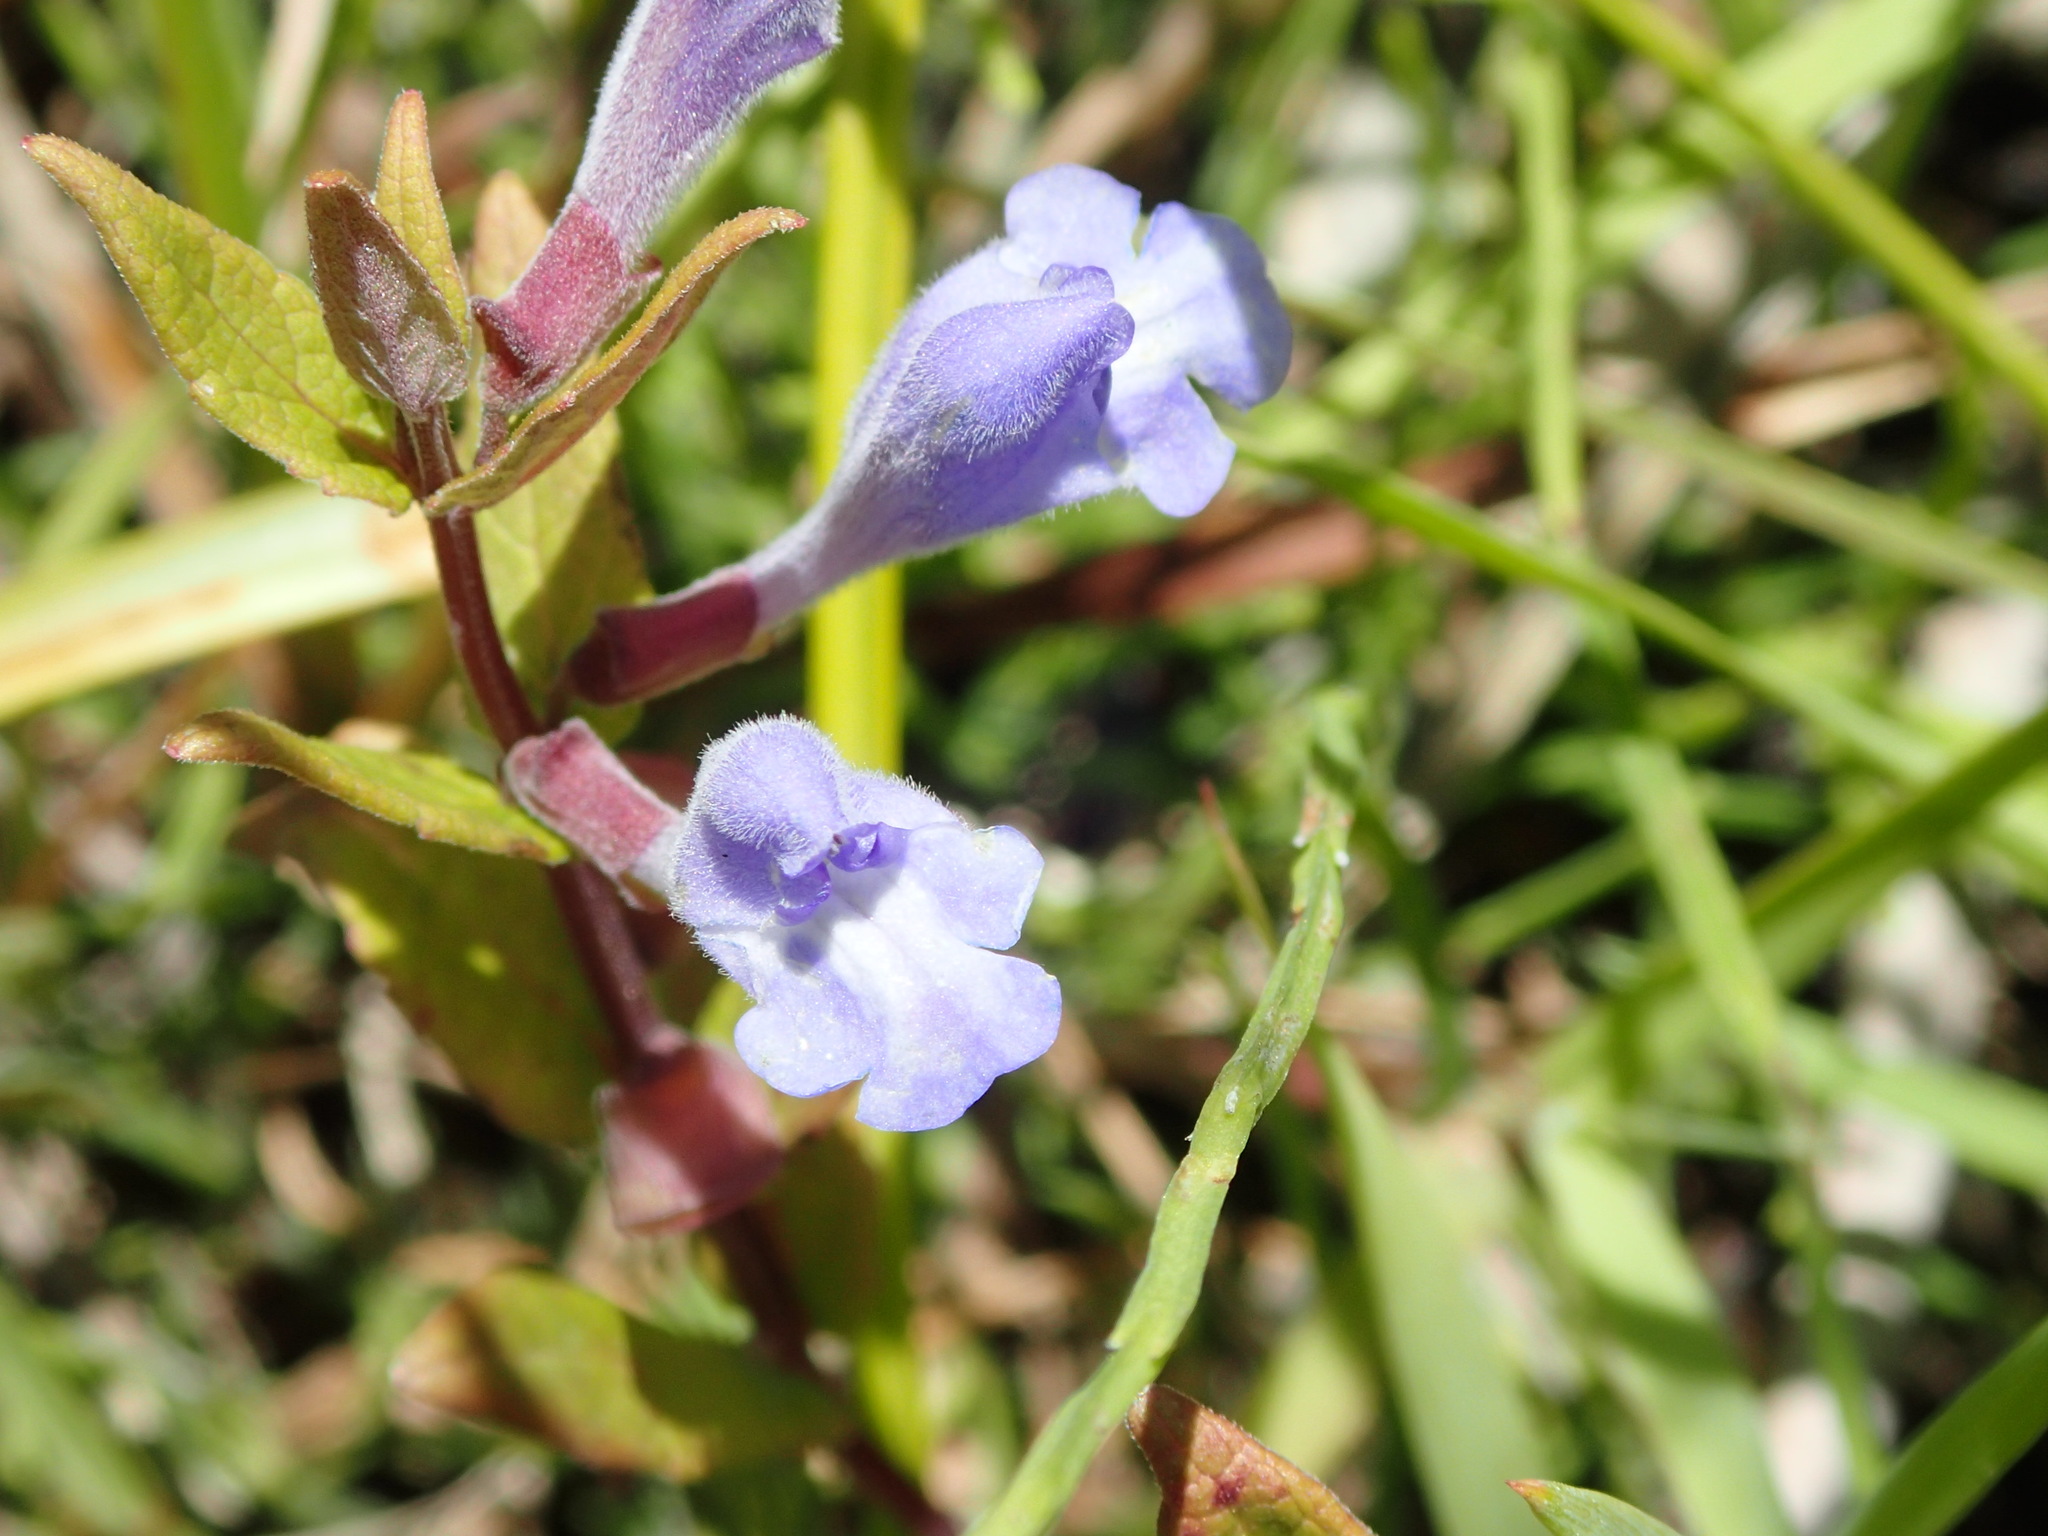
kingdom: Plantae
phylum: Tracheophyta
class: Magnoliopsida
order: Lamiales
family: Lamiaceae
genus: Scutellaria
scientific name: Scutellaria galericulata
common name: Skullcap
